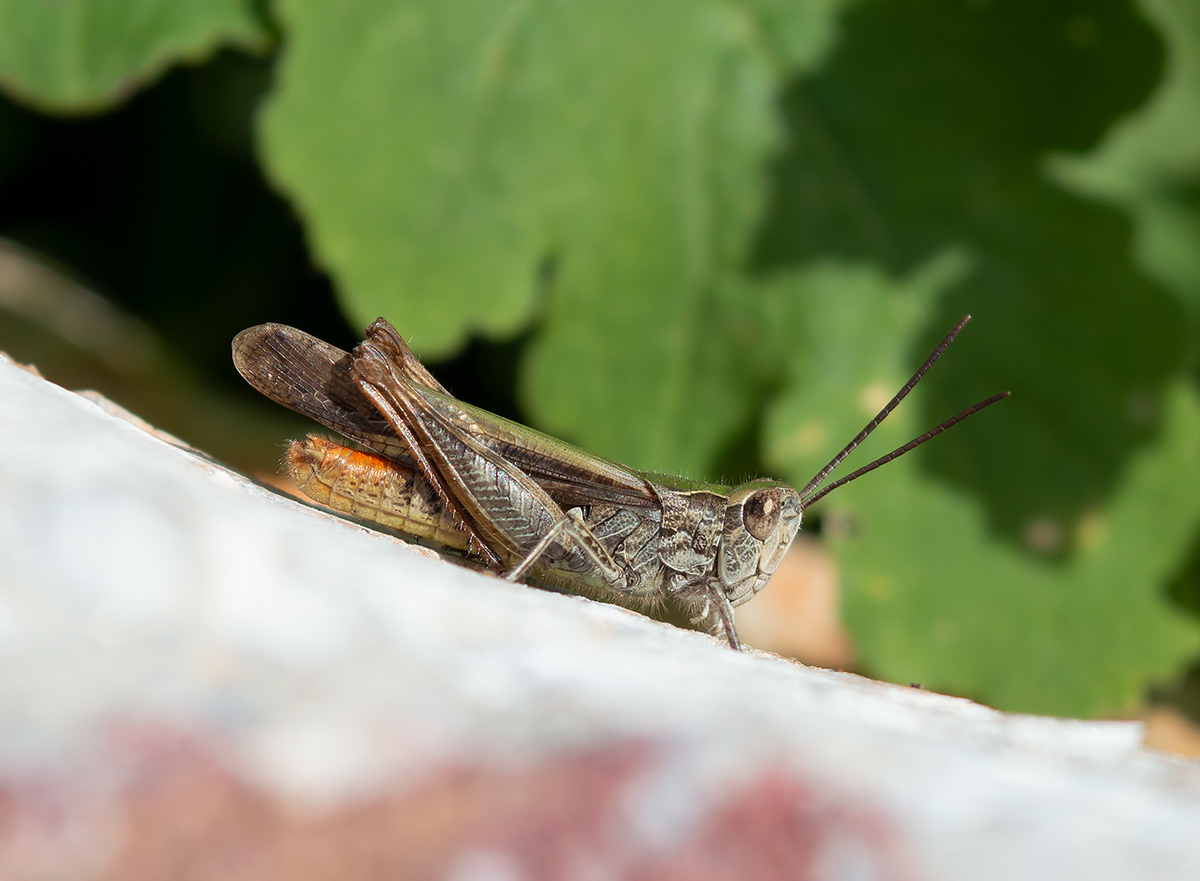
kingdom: Animalia
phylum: Arthropoda
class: Insecta
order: Orthoptera
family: Acrididae
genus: Chorthippus
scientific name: Chorthippus maritimus
